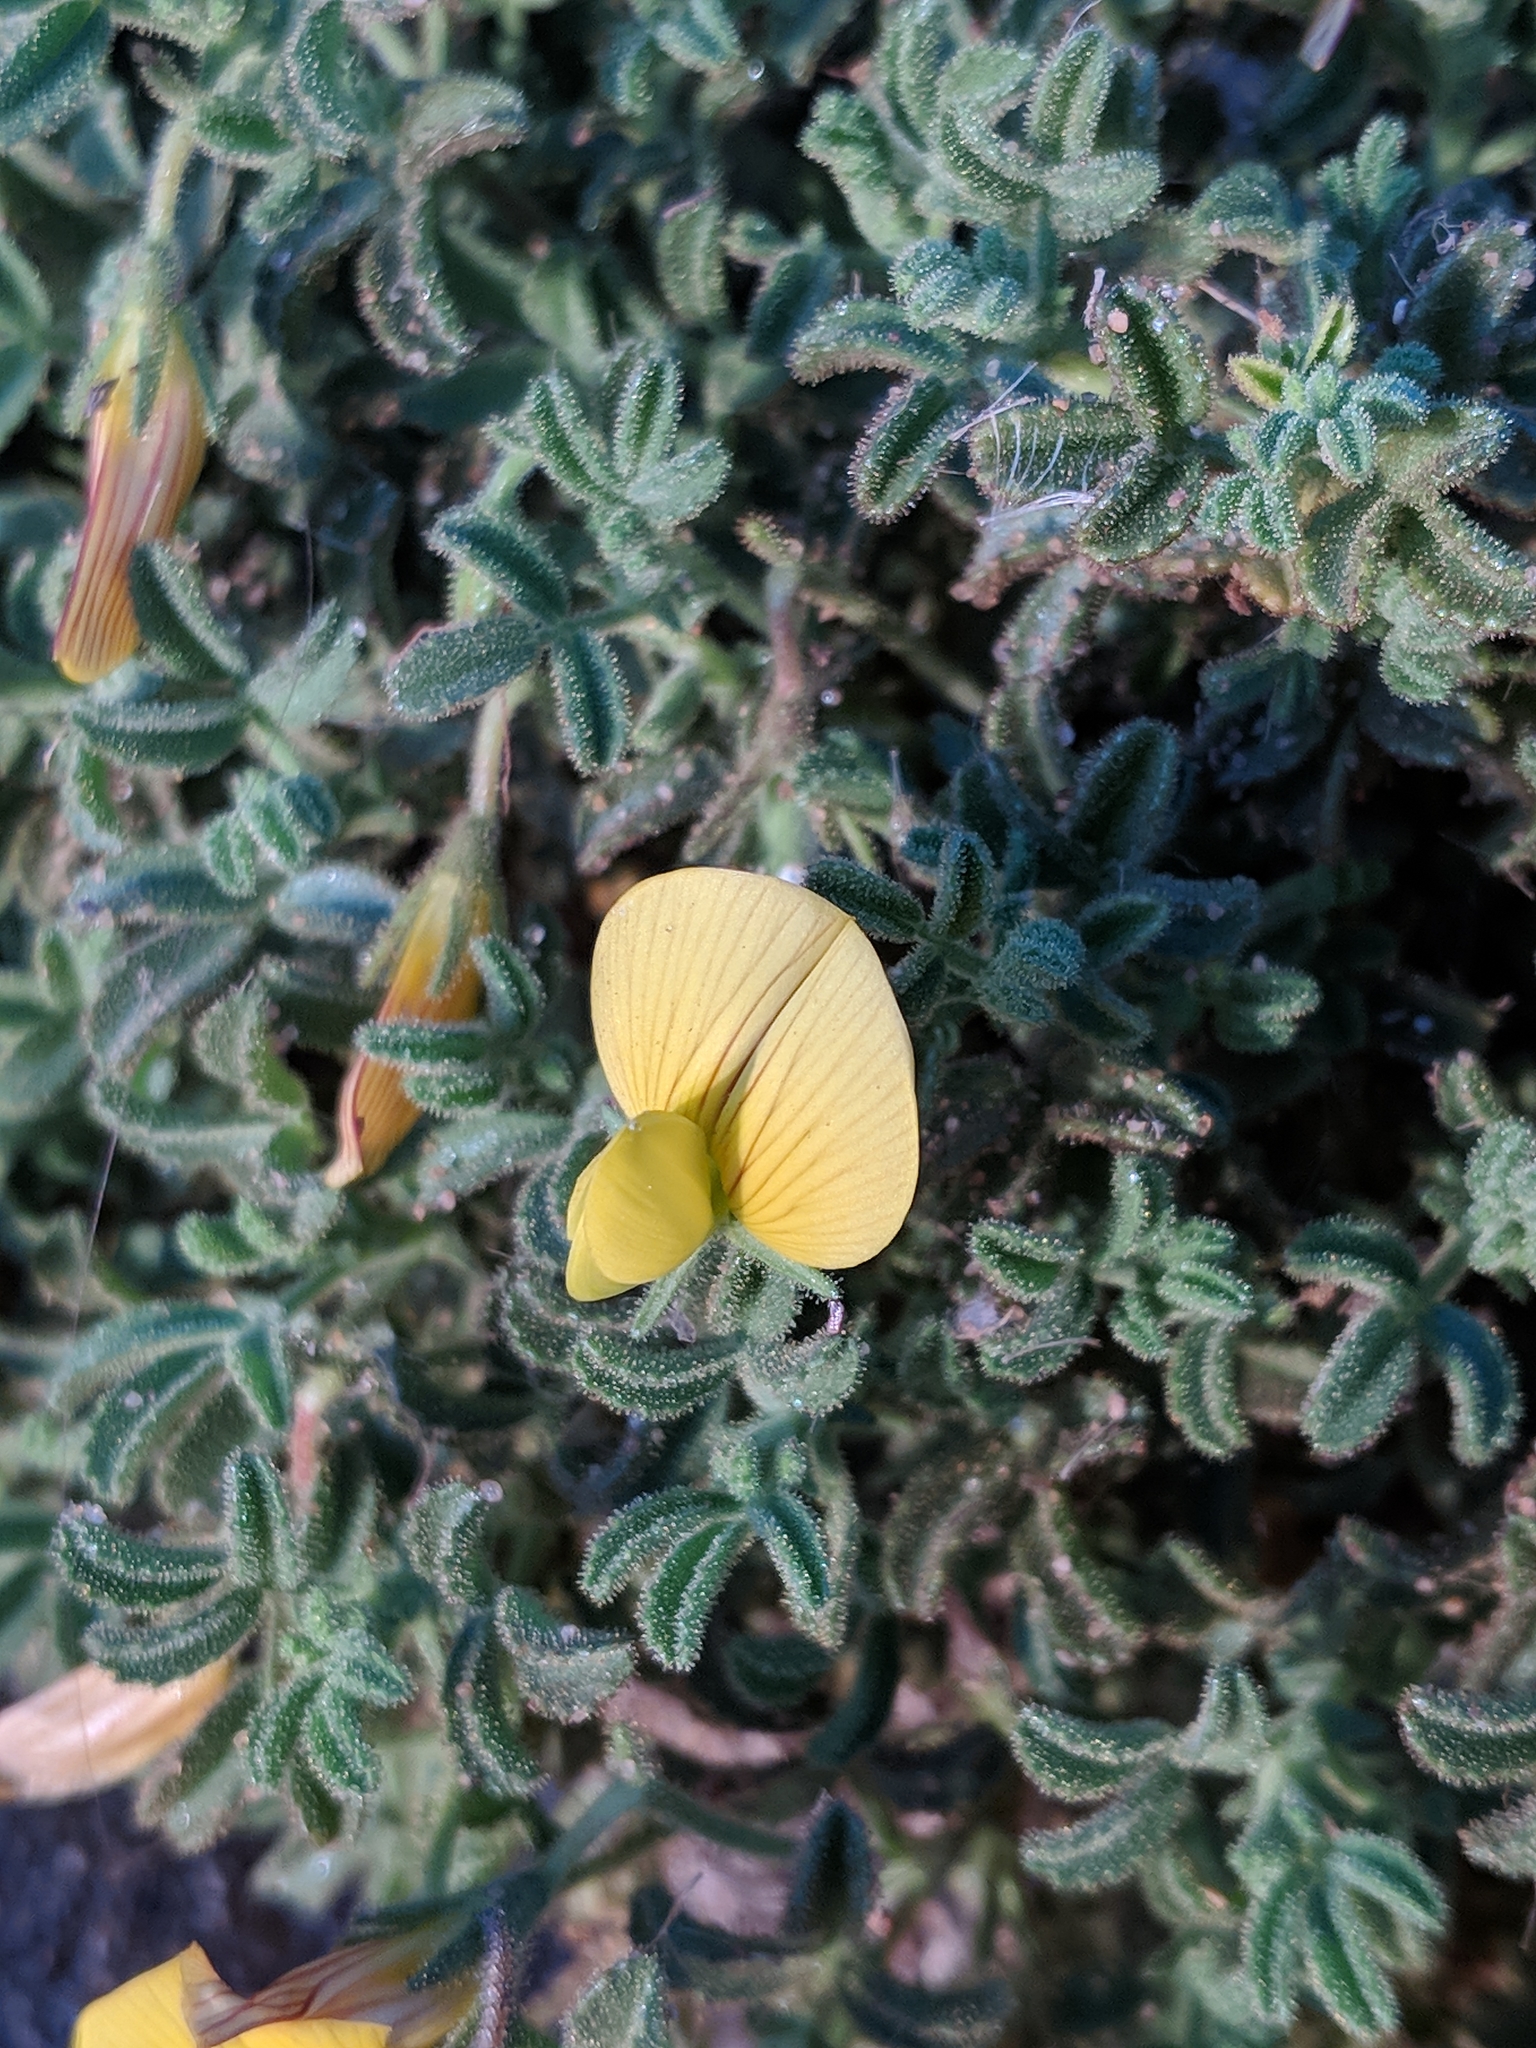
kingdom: Plantae
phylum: Tracheophyta
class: Magnoliopsida
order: Fabales
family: Fabaceae
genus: Ononis
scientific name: Ononis ramosissima
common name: Bush restharrow
